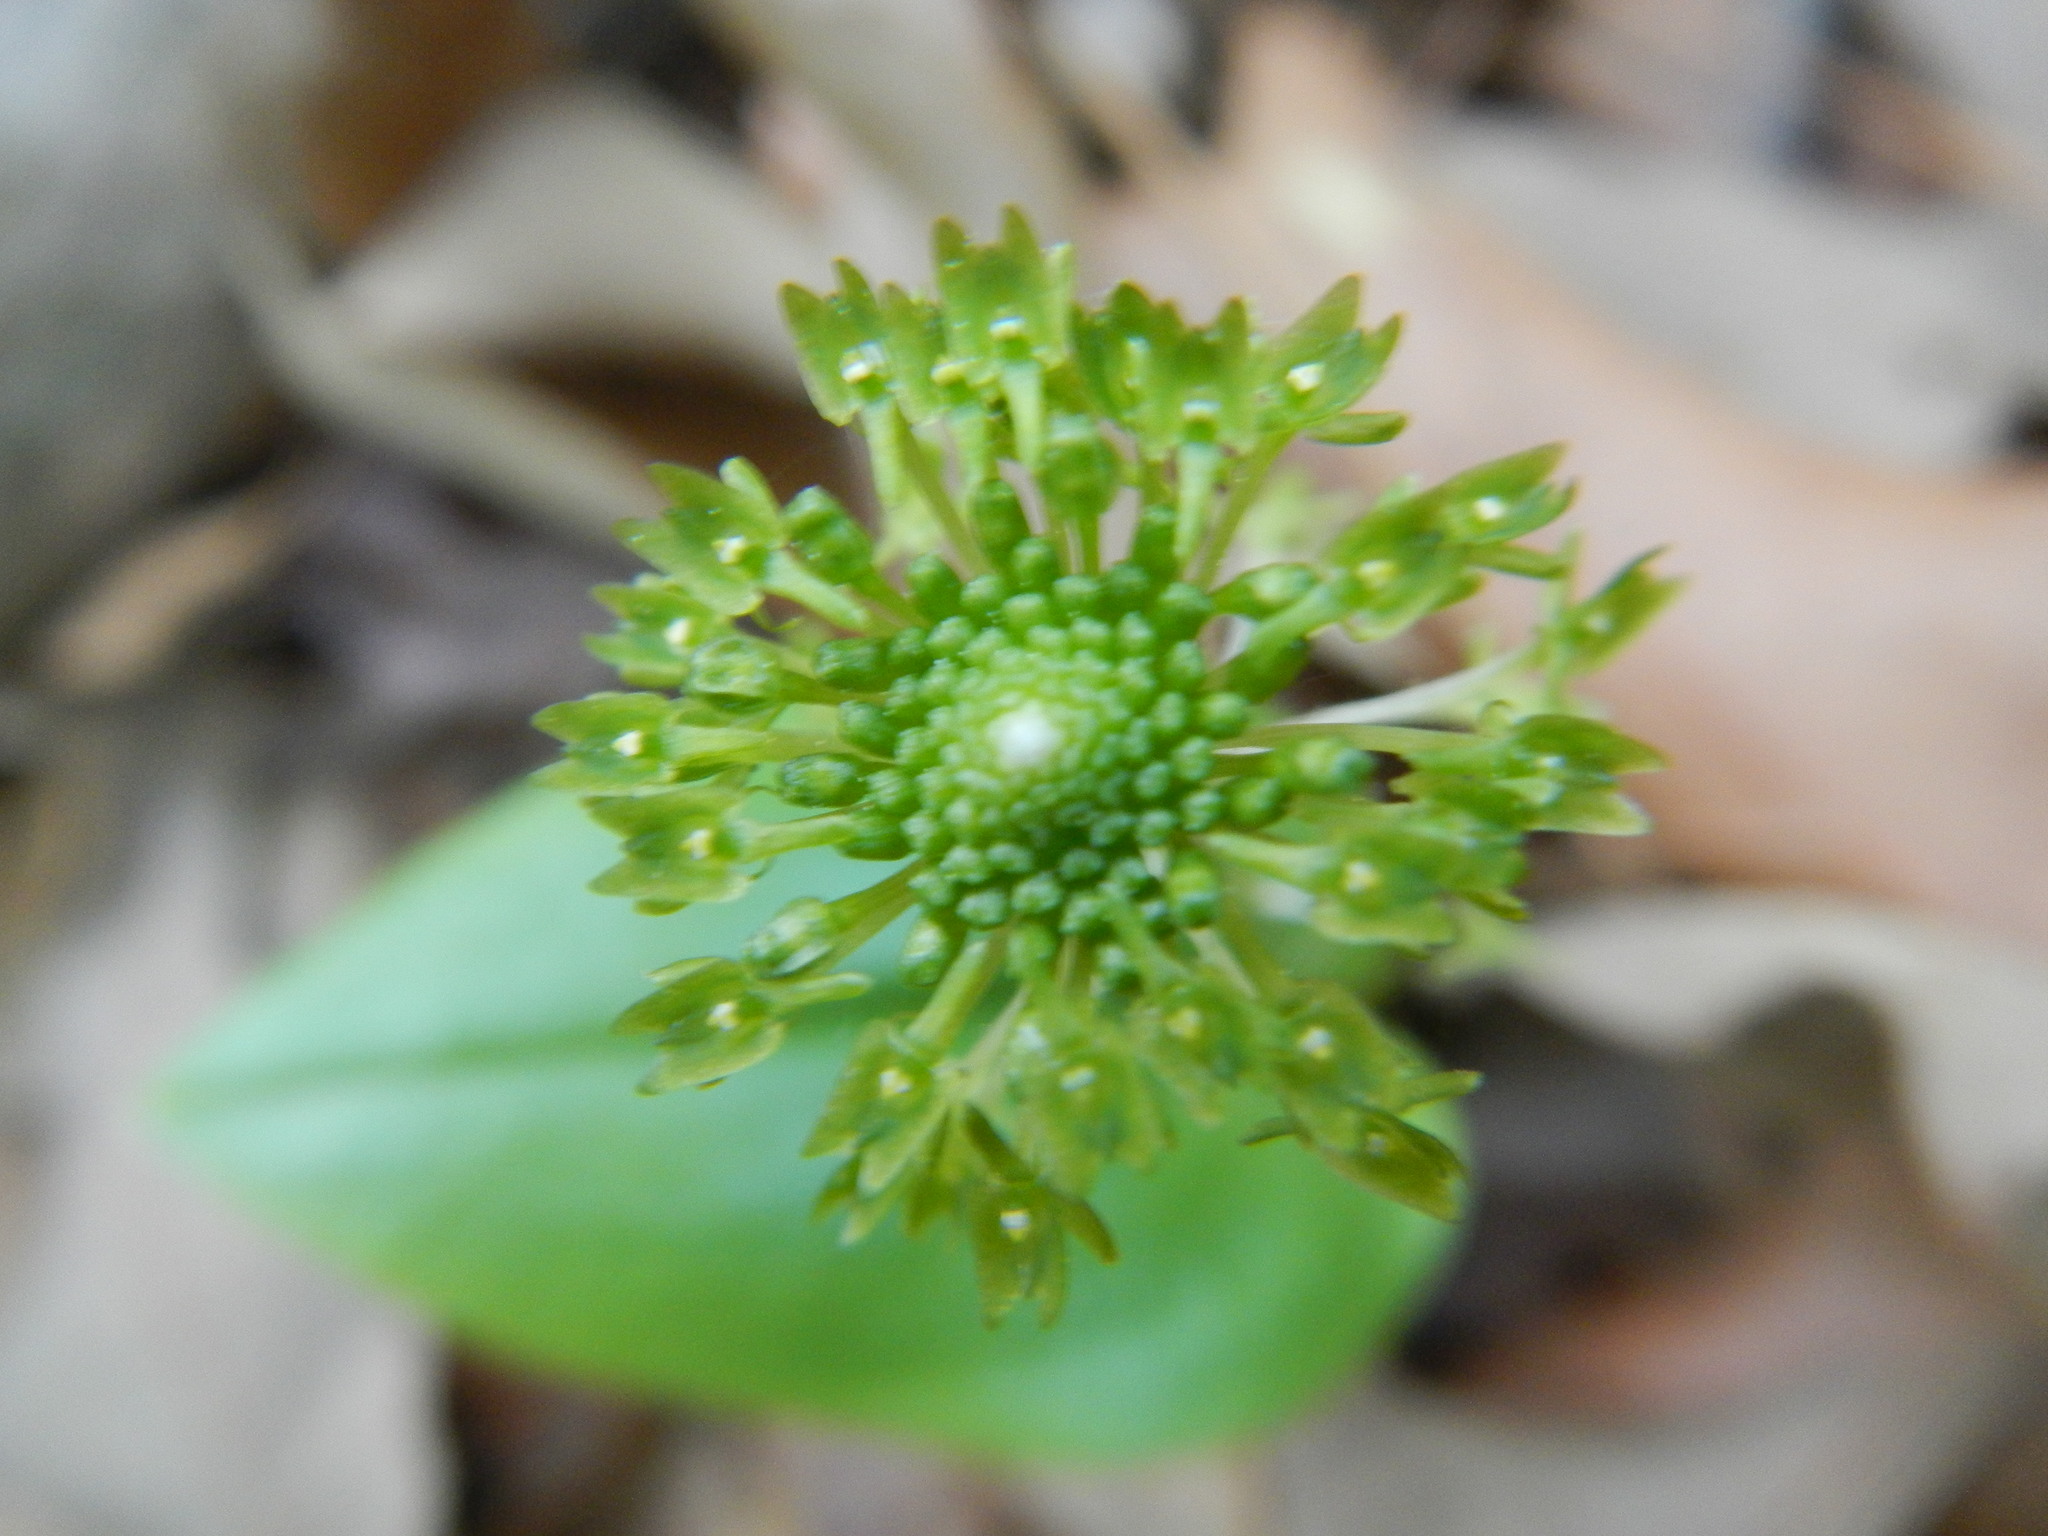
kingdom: Plantae
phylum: Tracheophyta
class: Liliopsida
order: Asparagales
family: Orchidaceae
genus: Malaxis
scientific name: Malaxis unifolia
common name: Green adder's-mouth
